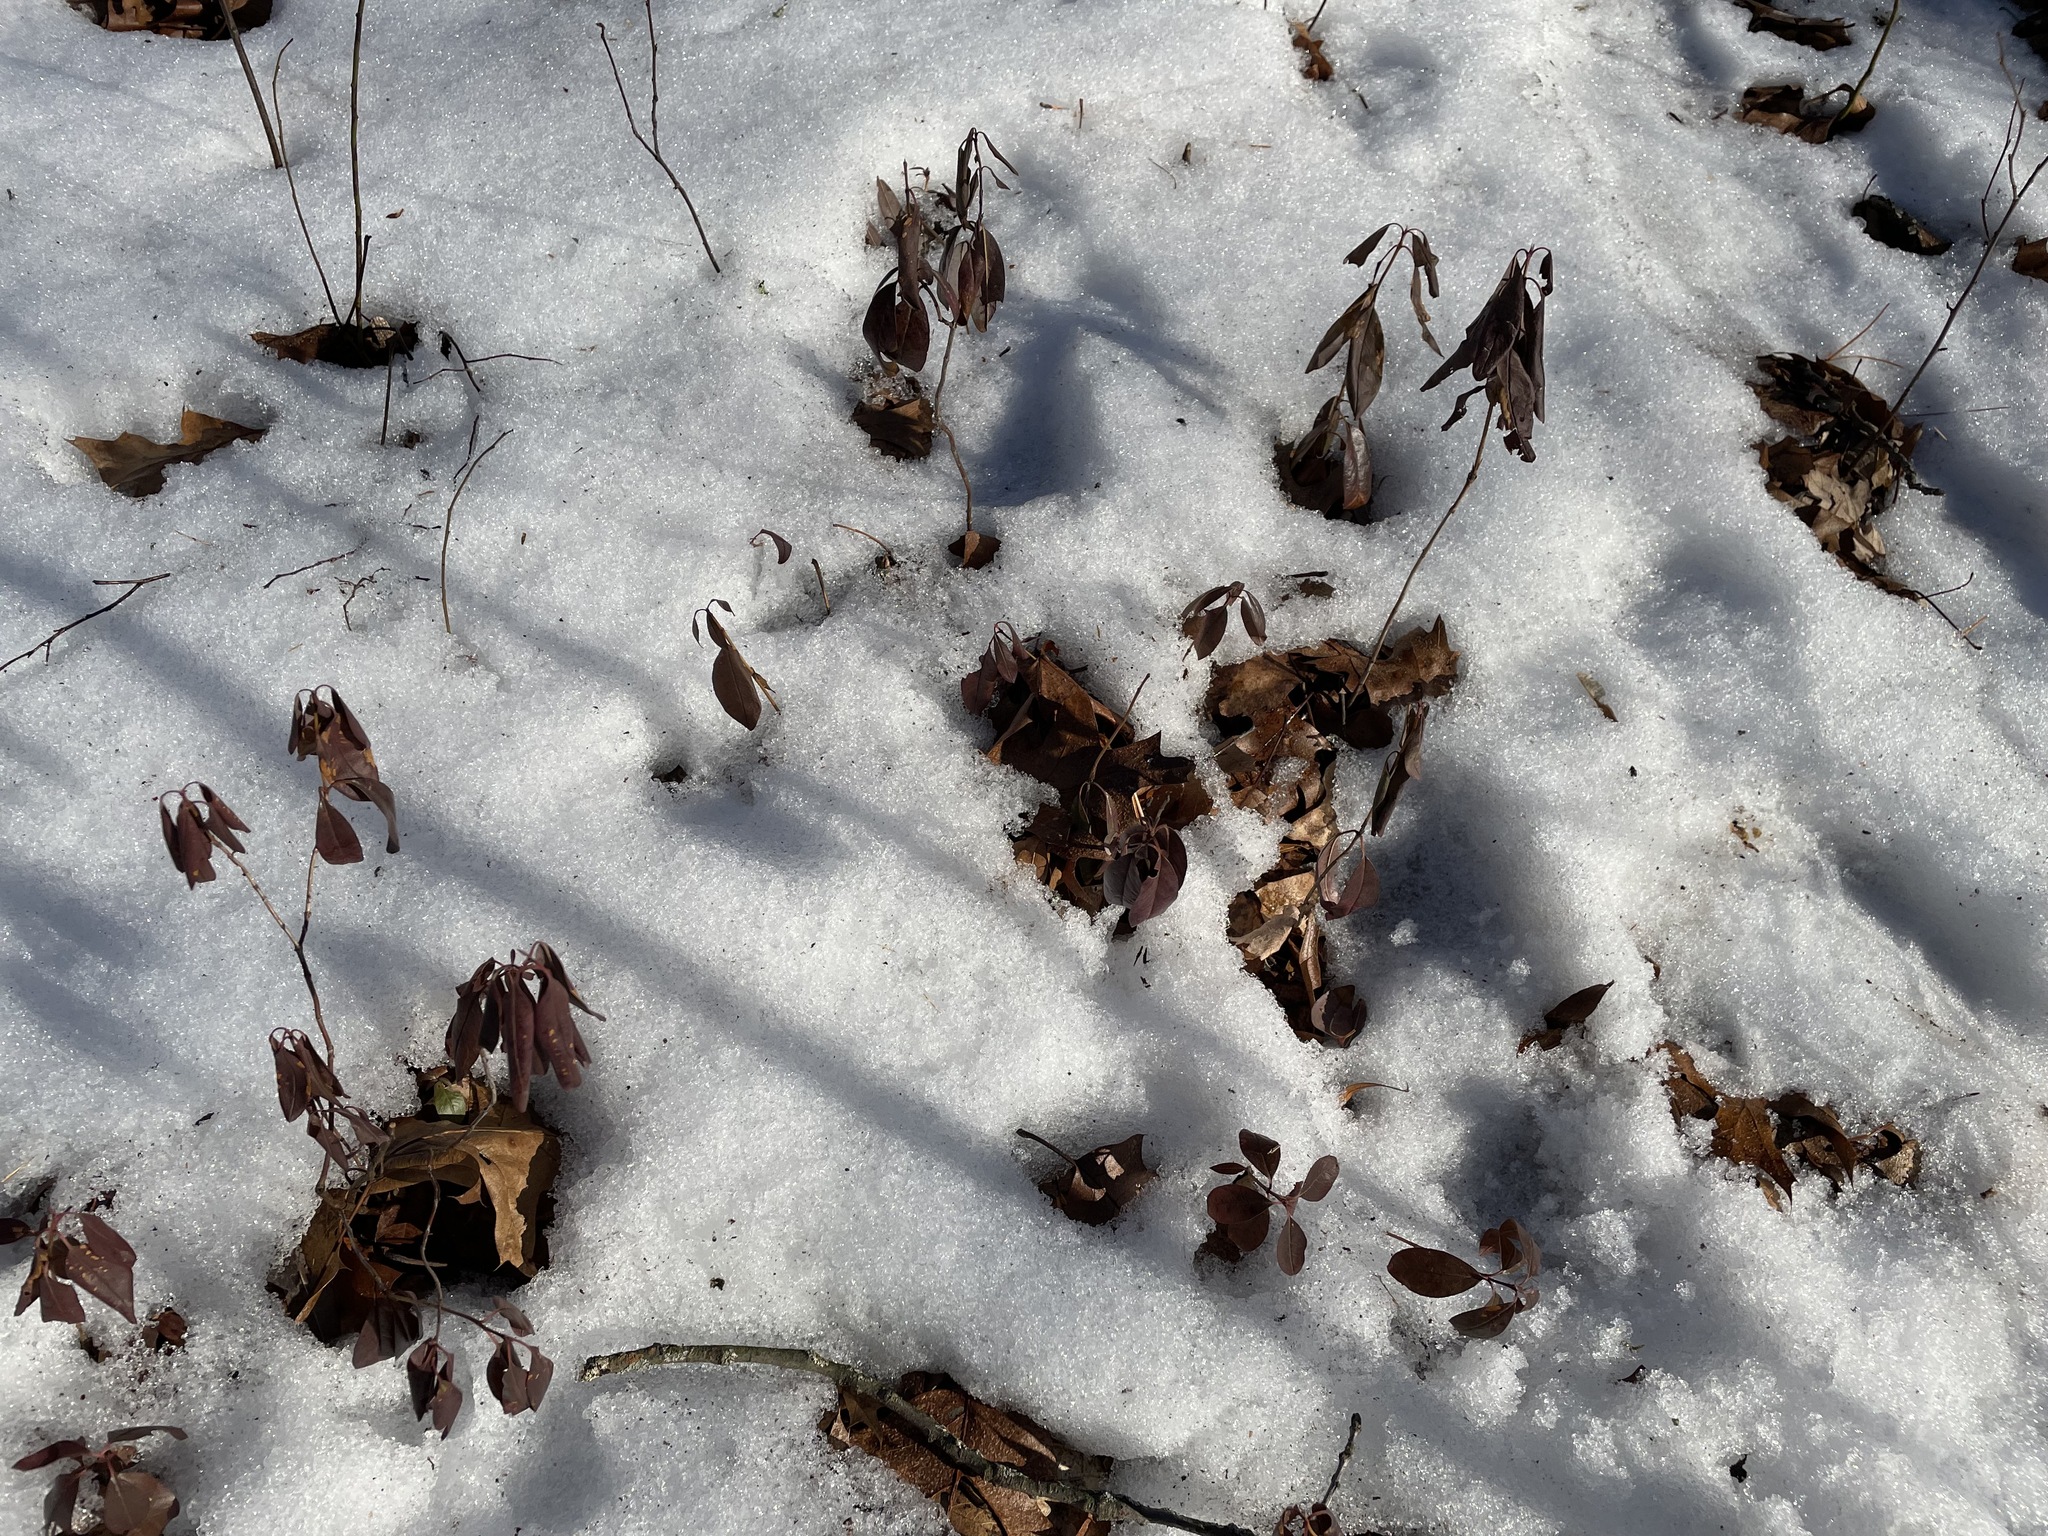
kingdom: Plantae
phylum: Tracheophyta
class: Magnoliopsida
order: Ericales
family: Ericaceae
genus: Kalmia
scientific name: Kalmia angustifolia
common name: Sheep-laurel
